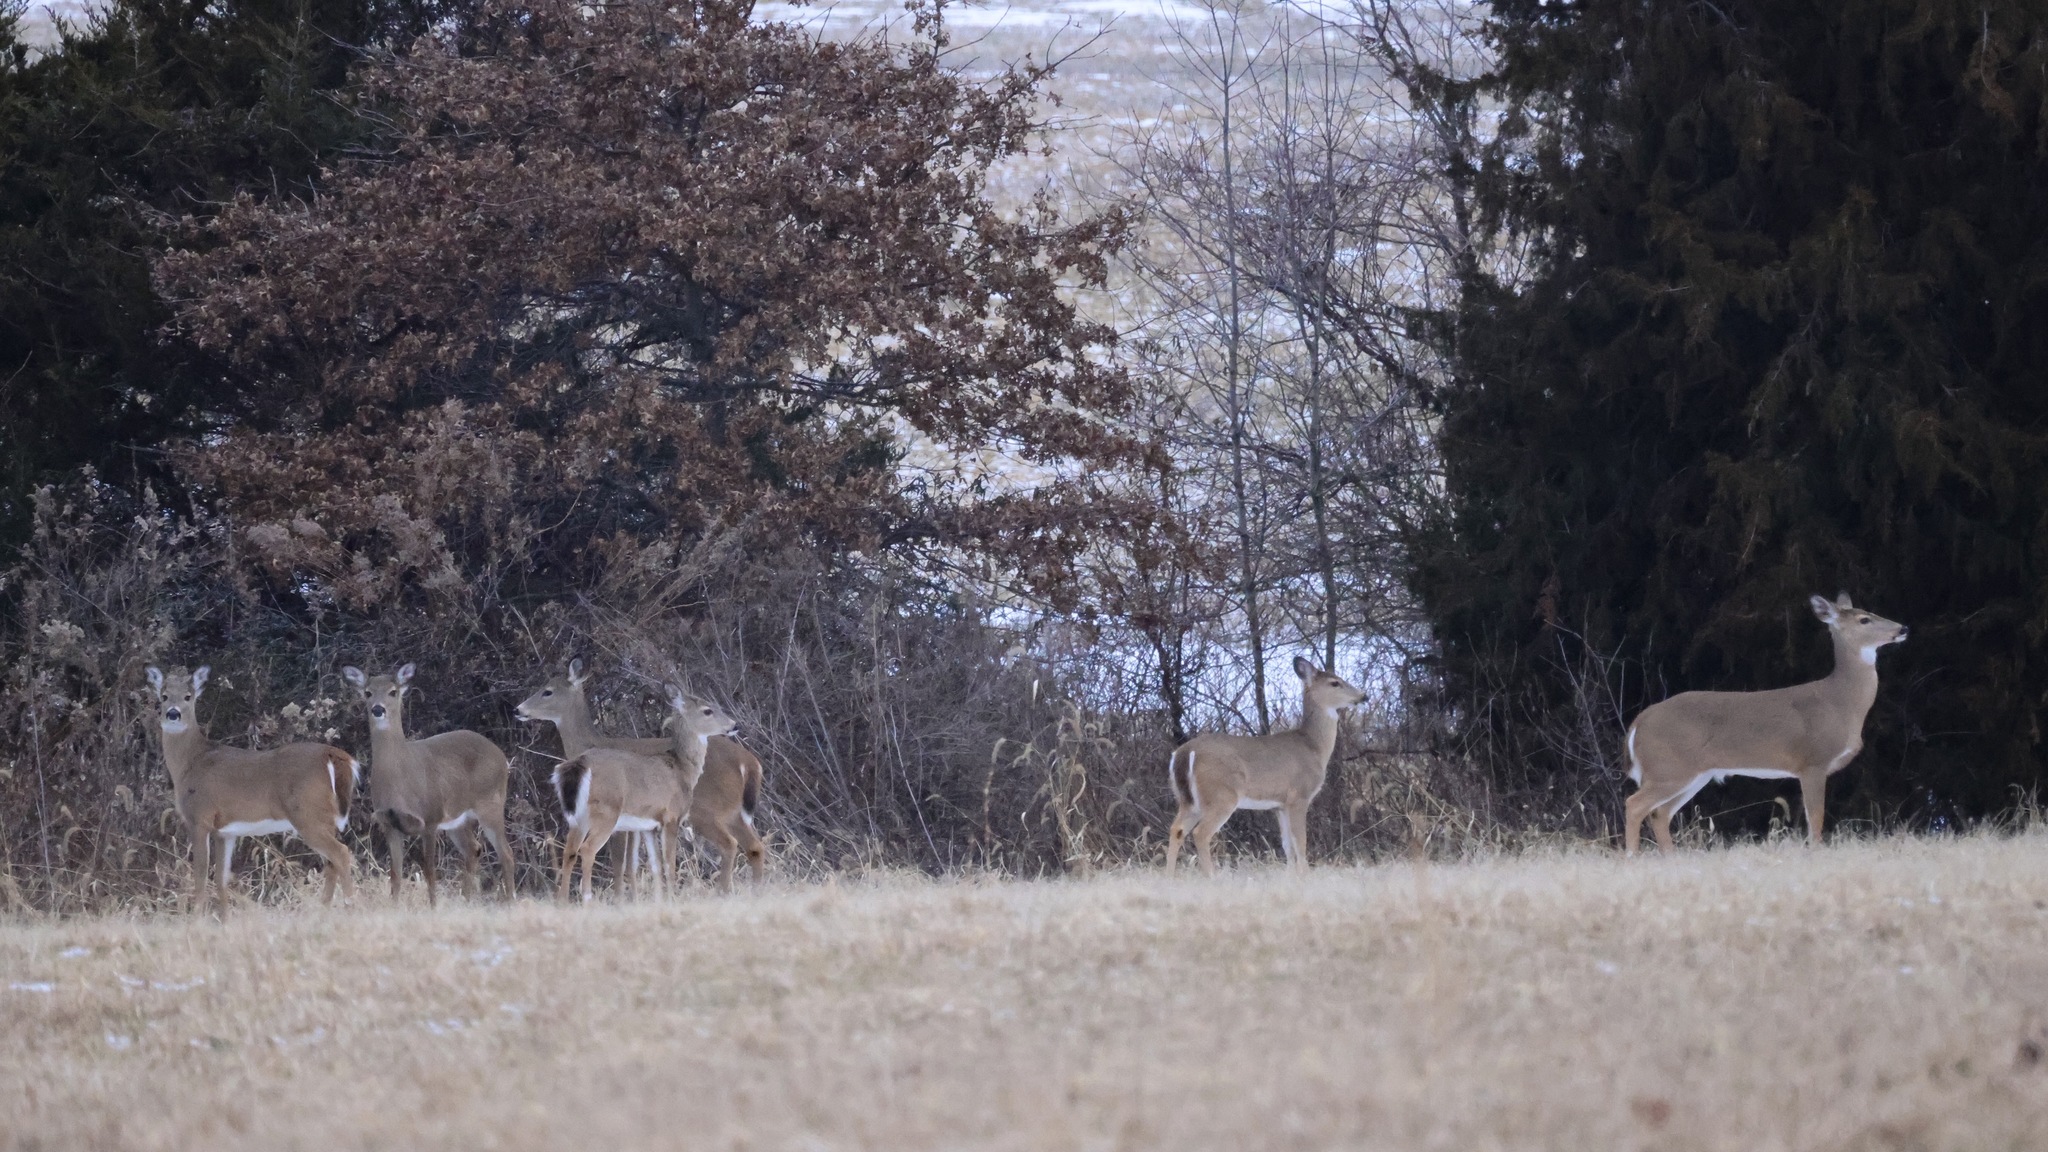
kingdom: Animalia
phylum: Chordata
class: Mammalia
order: Artiodactyla
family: Cervidae
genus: Odocoileus
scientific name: Odocoileus virginianus
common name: White-tailed deer
